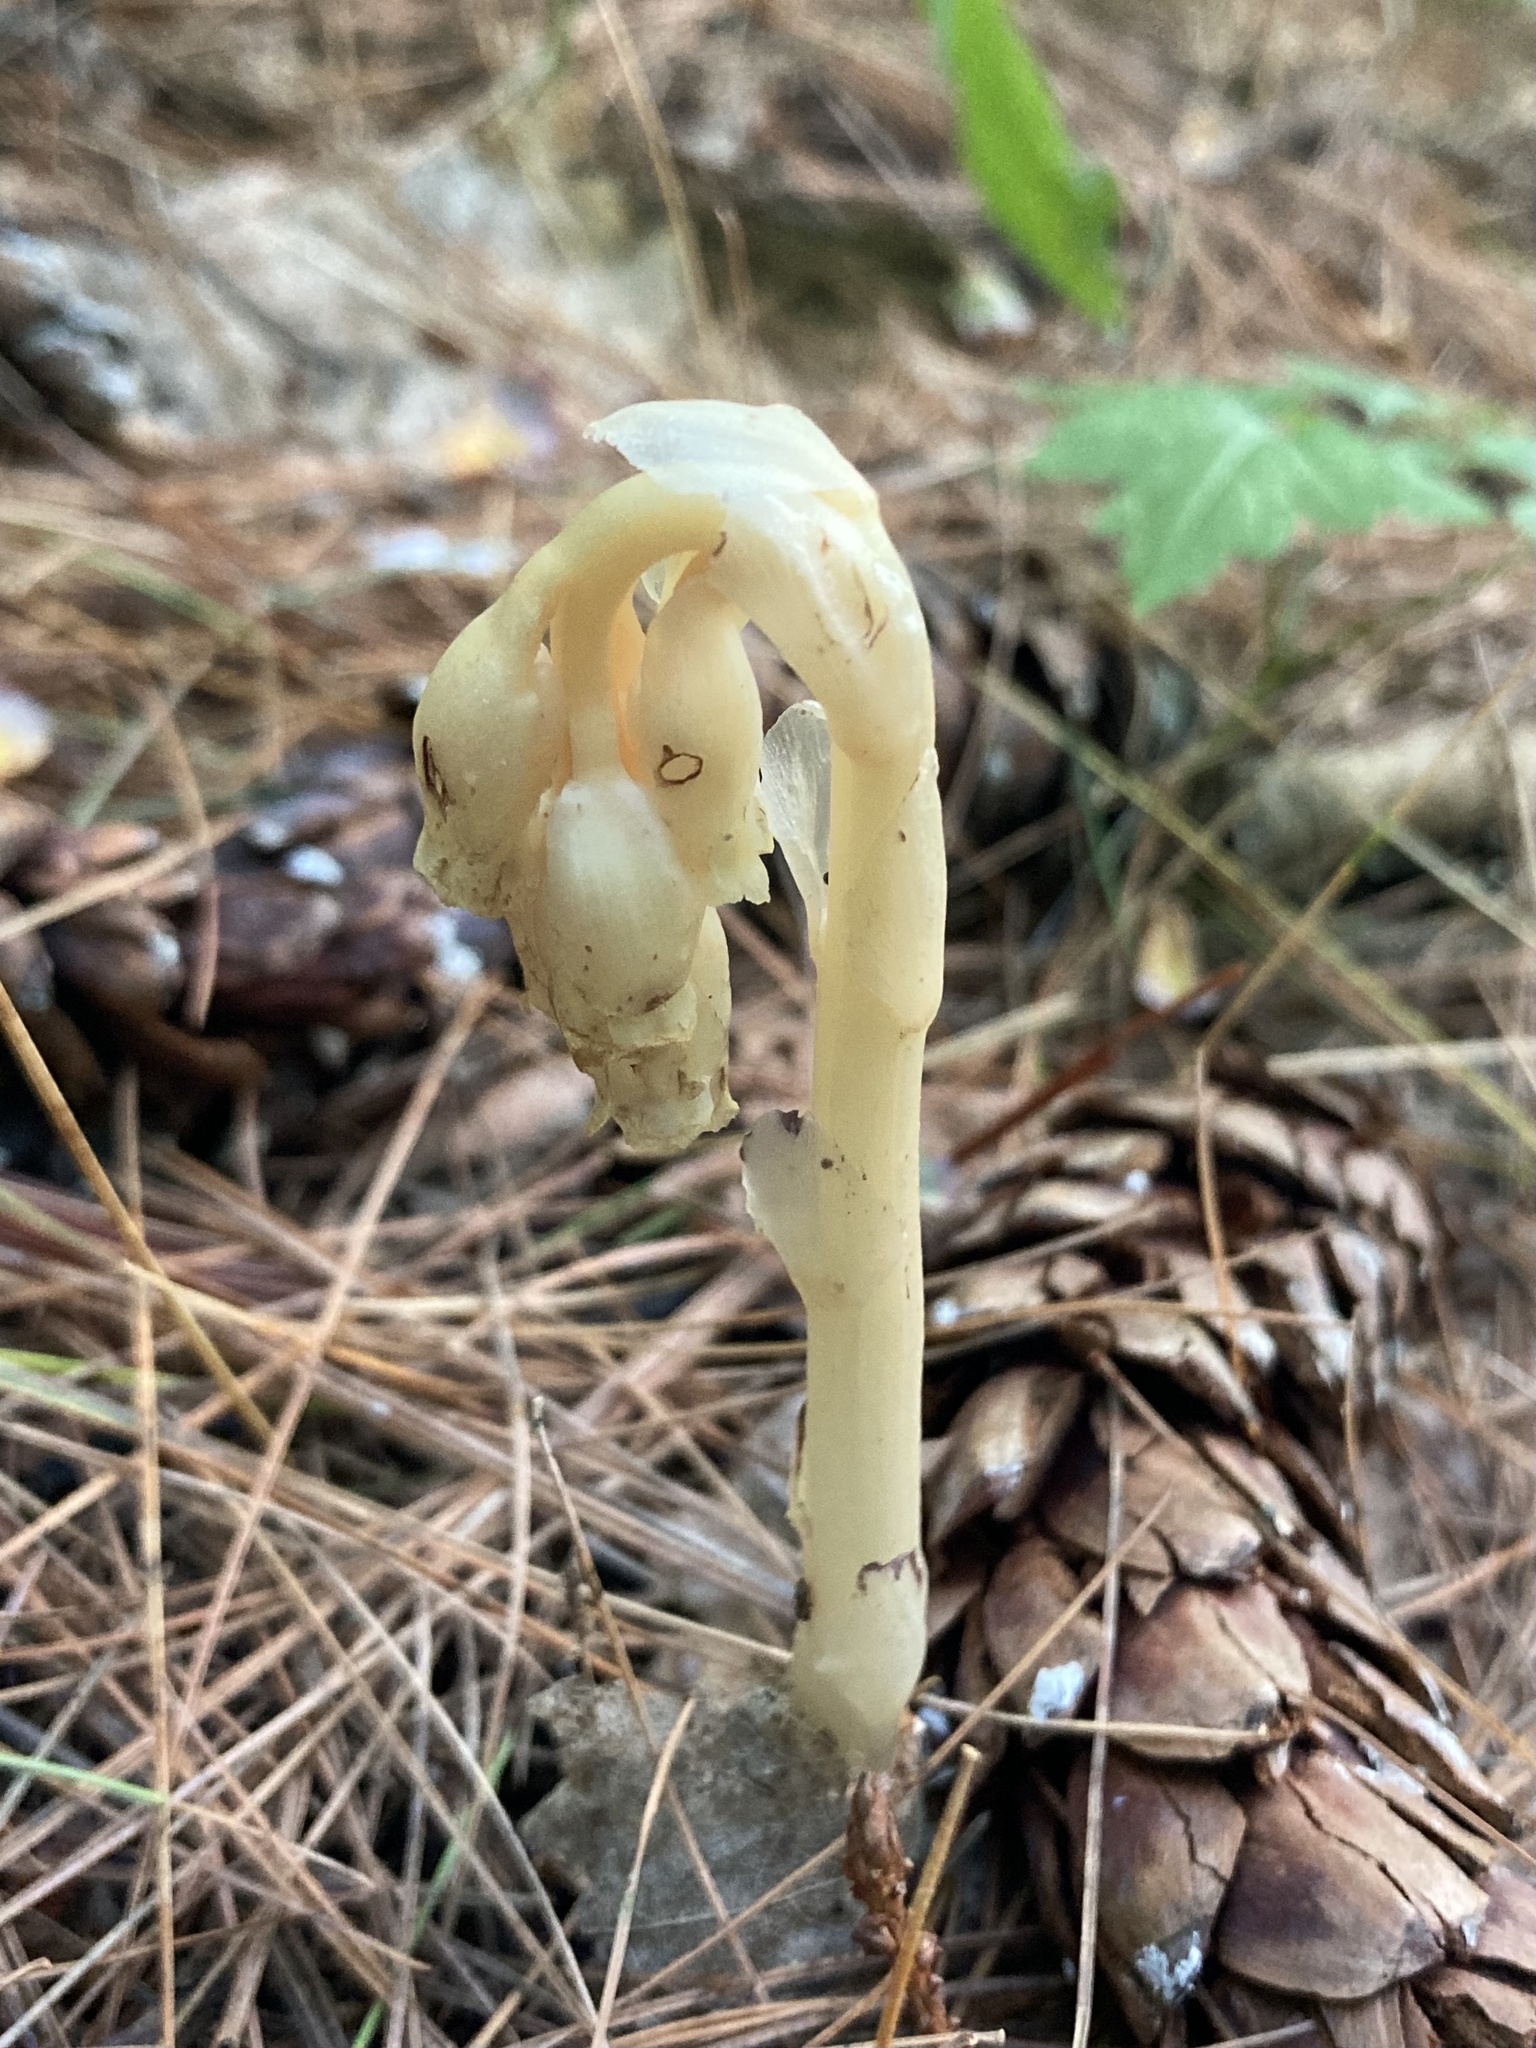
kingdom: Plantae
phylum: Tracheophyta
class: Magnoliopsida
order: Ericales
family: Ericaceae
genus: Hypopitys
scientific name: Hypopitys monotropa
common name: Yellow bird's-nest
